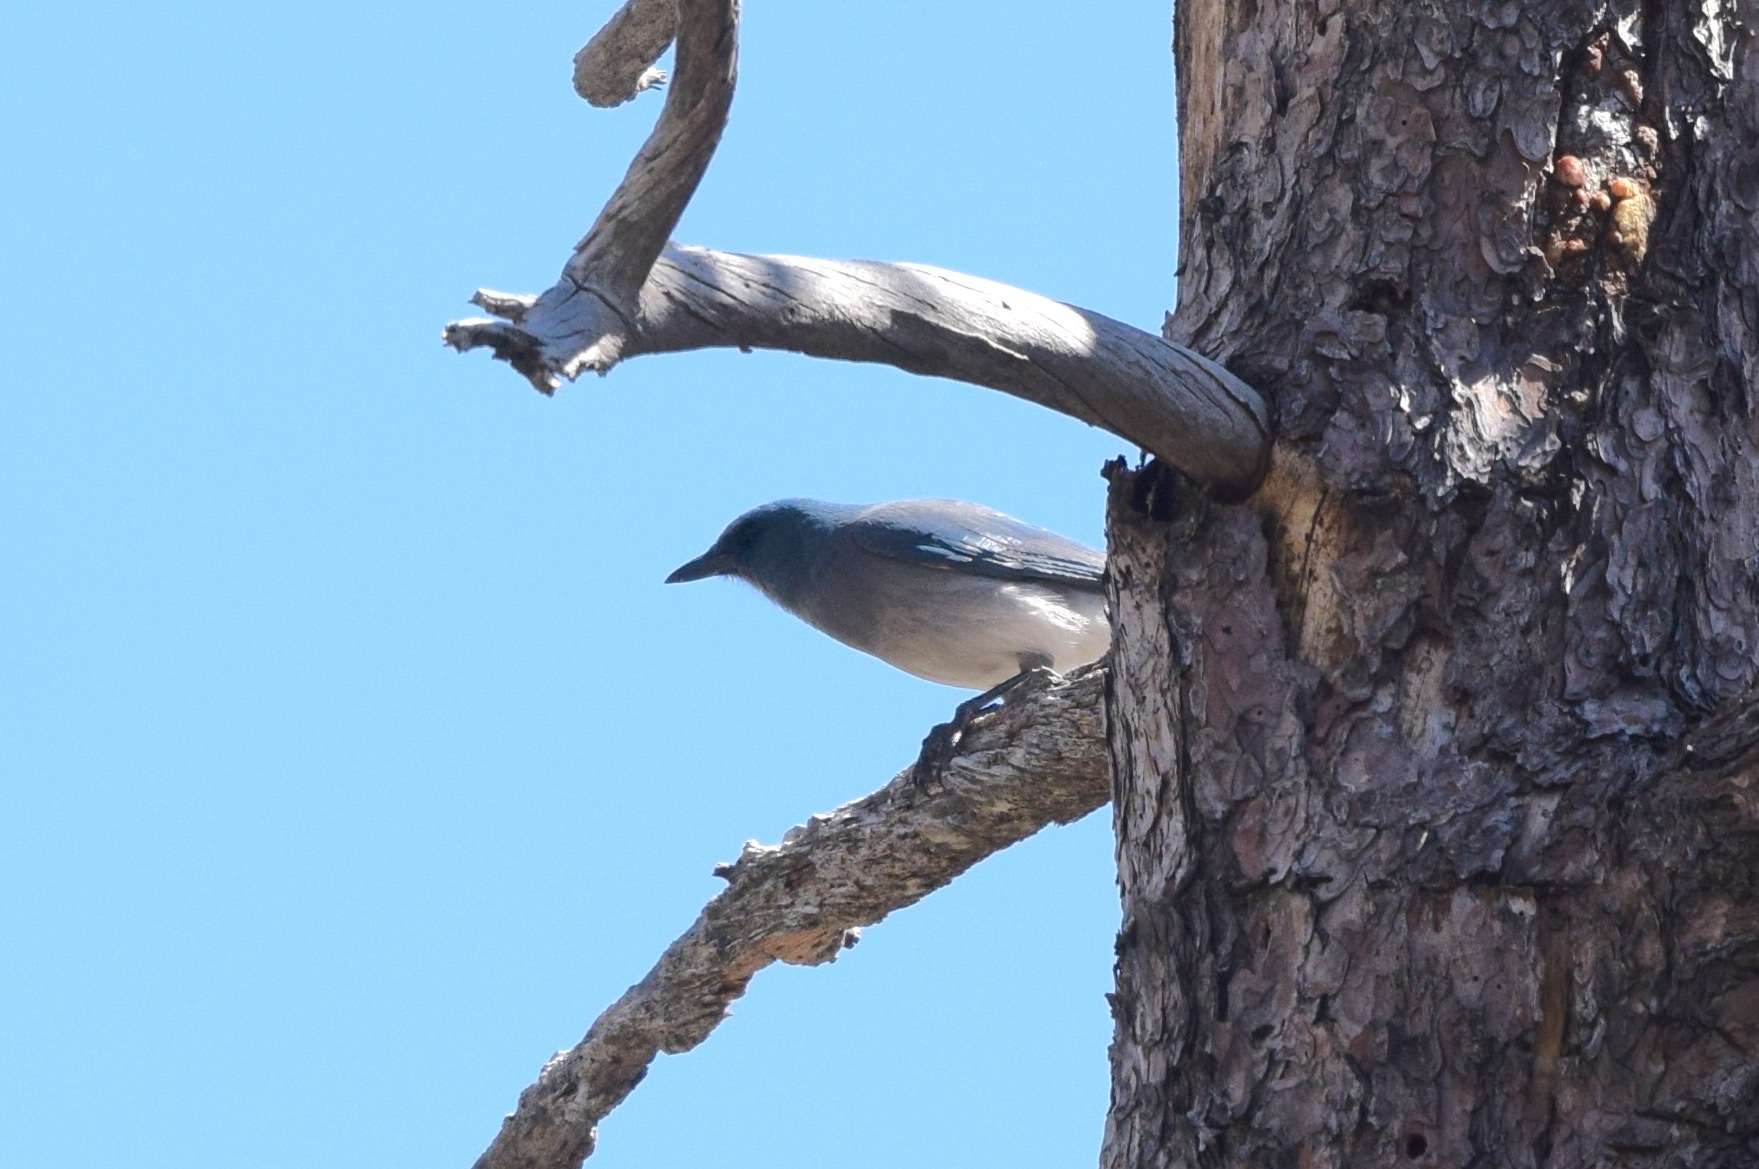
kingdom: Animalia
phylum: Chordata
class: Aves
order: Passeriformes
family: Corvidae
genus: Aphelocoma
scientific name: Aphelocoma wollweberi
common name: Mexican jay
